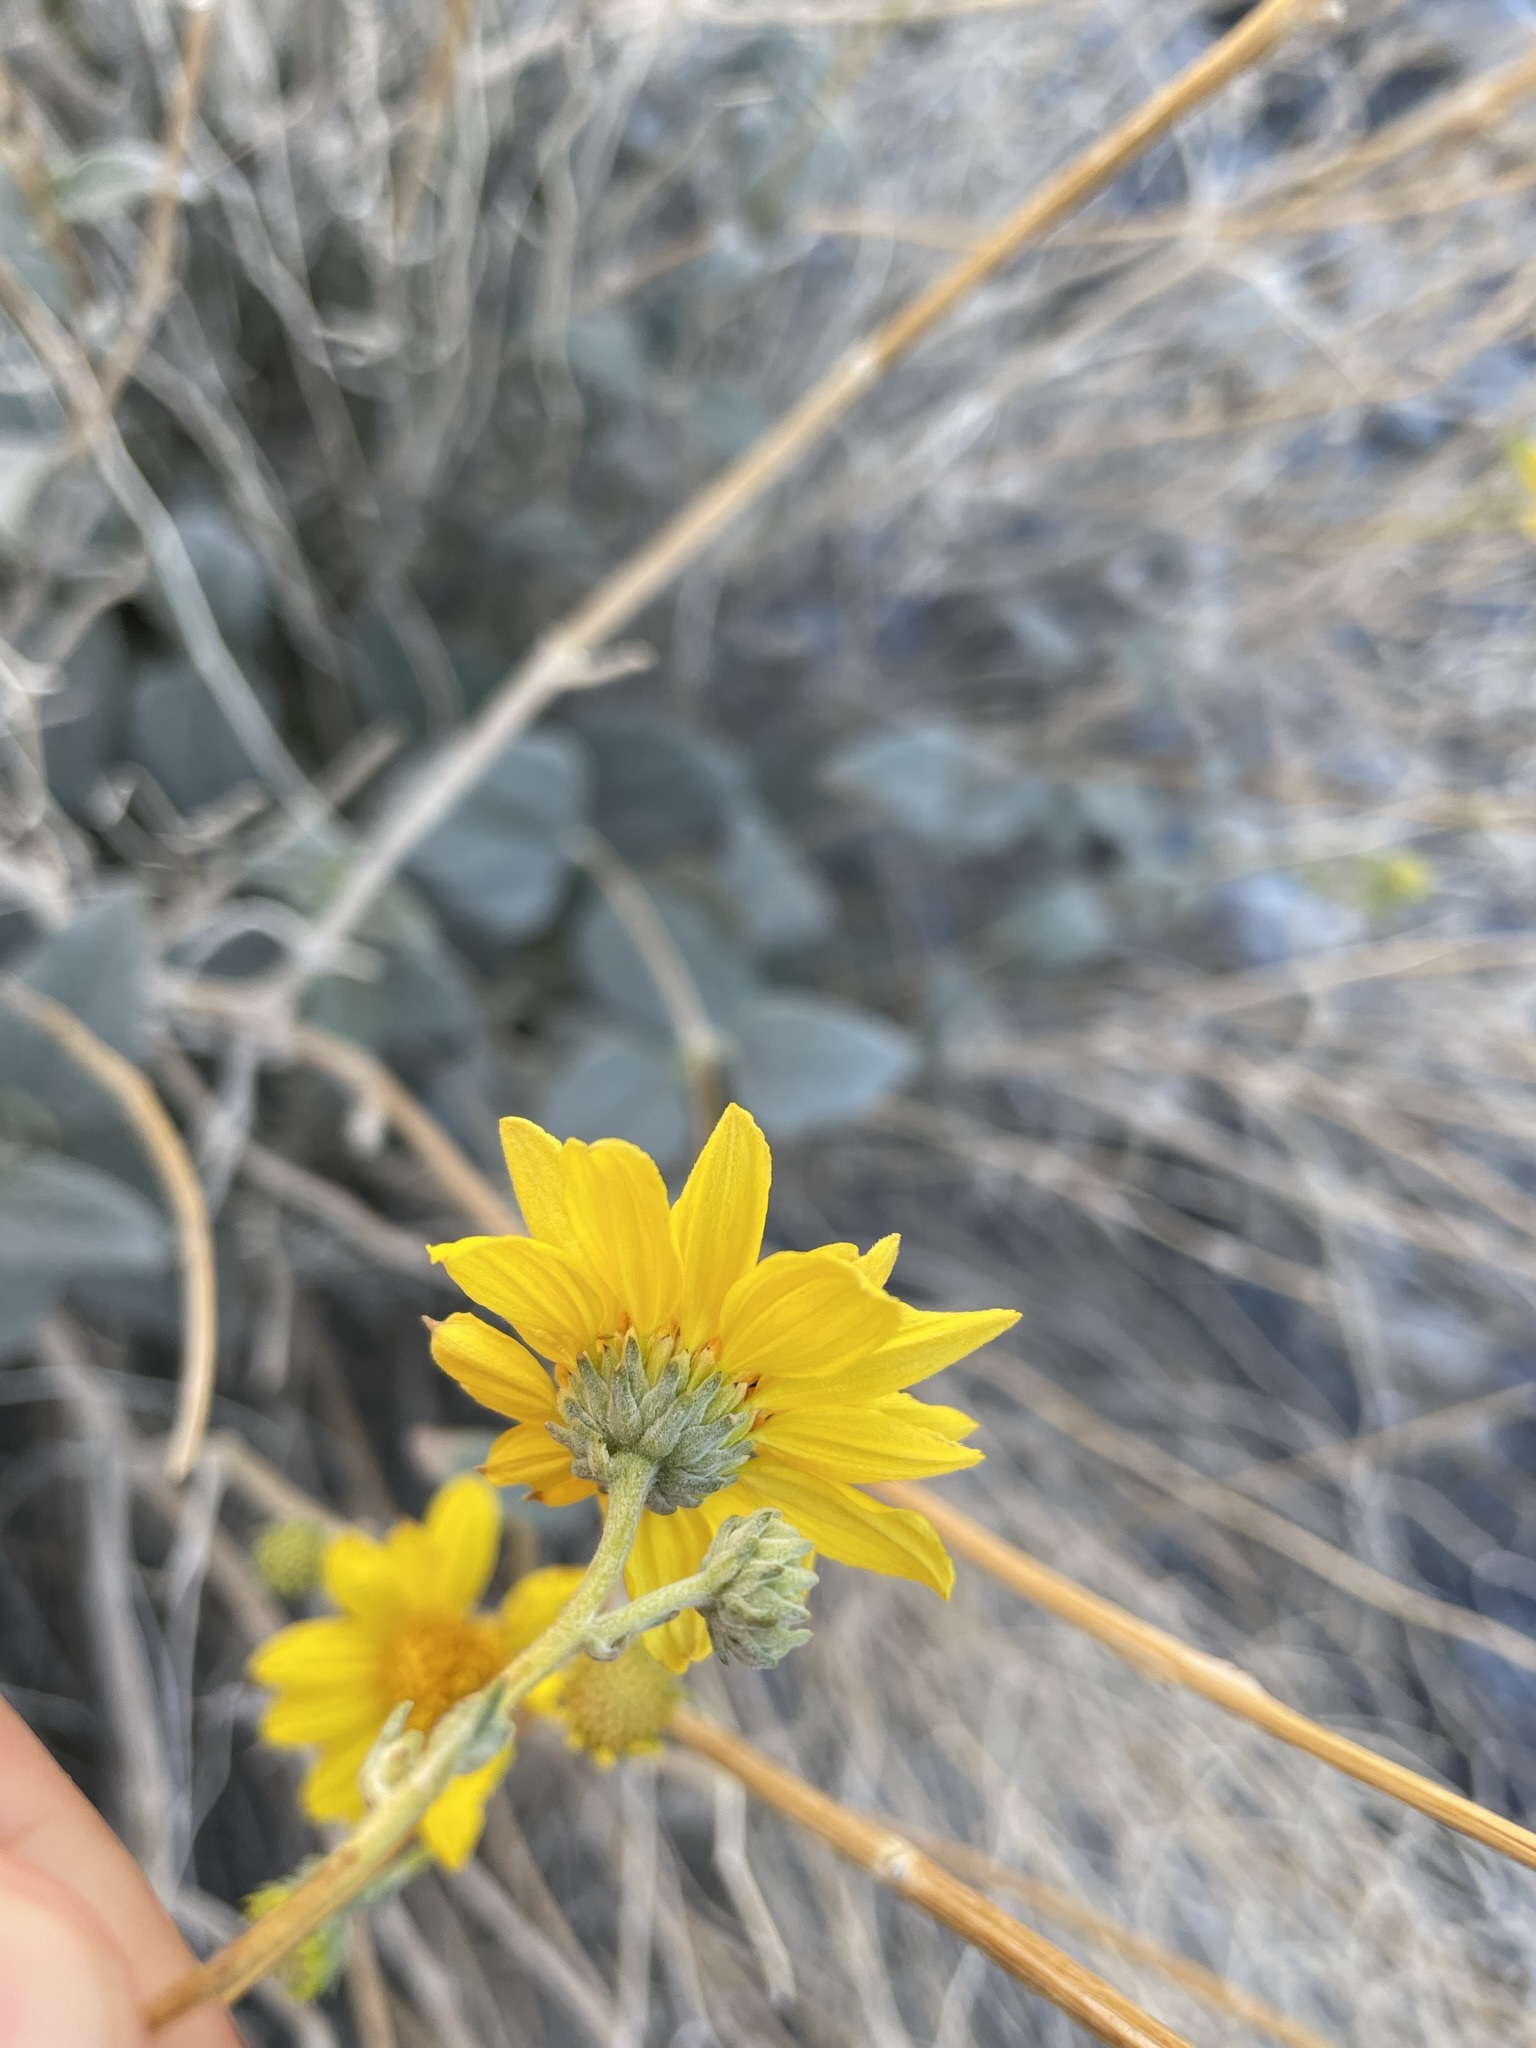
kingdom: Plantae
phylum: Tracheophyta
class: Magnoliopsida
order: Asterales
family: Asteraceae
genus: Bahiopsis
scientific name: Bahiopsis reticulata
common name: Death valley goldeneye
